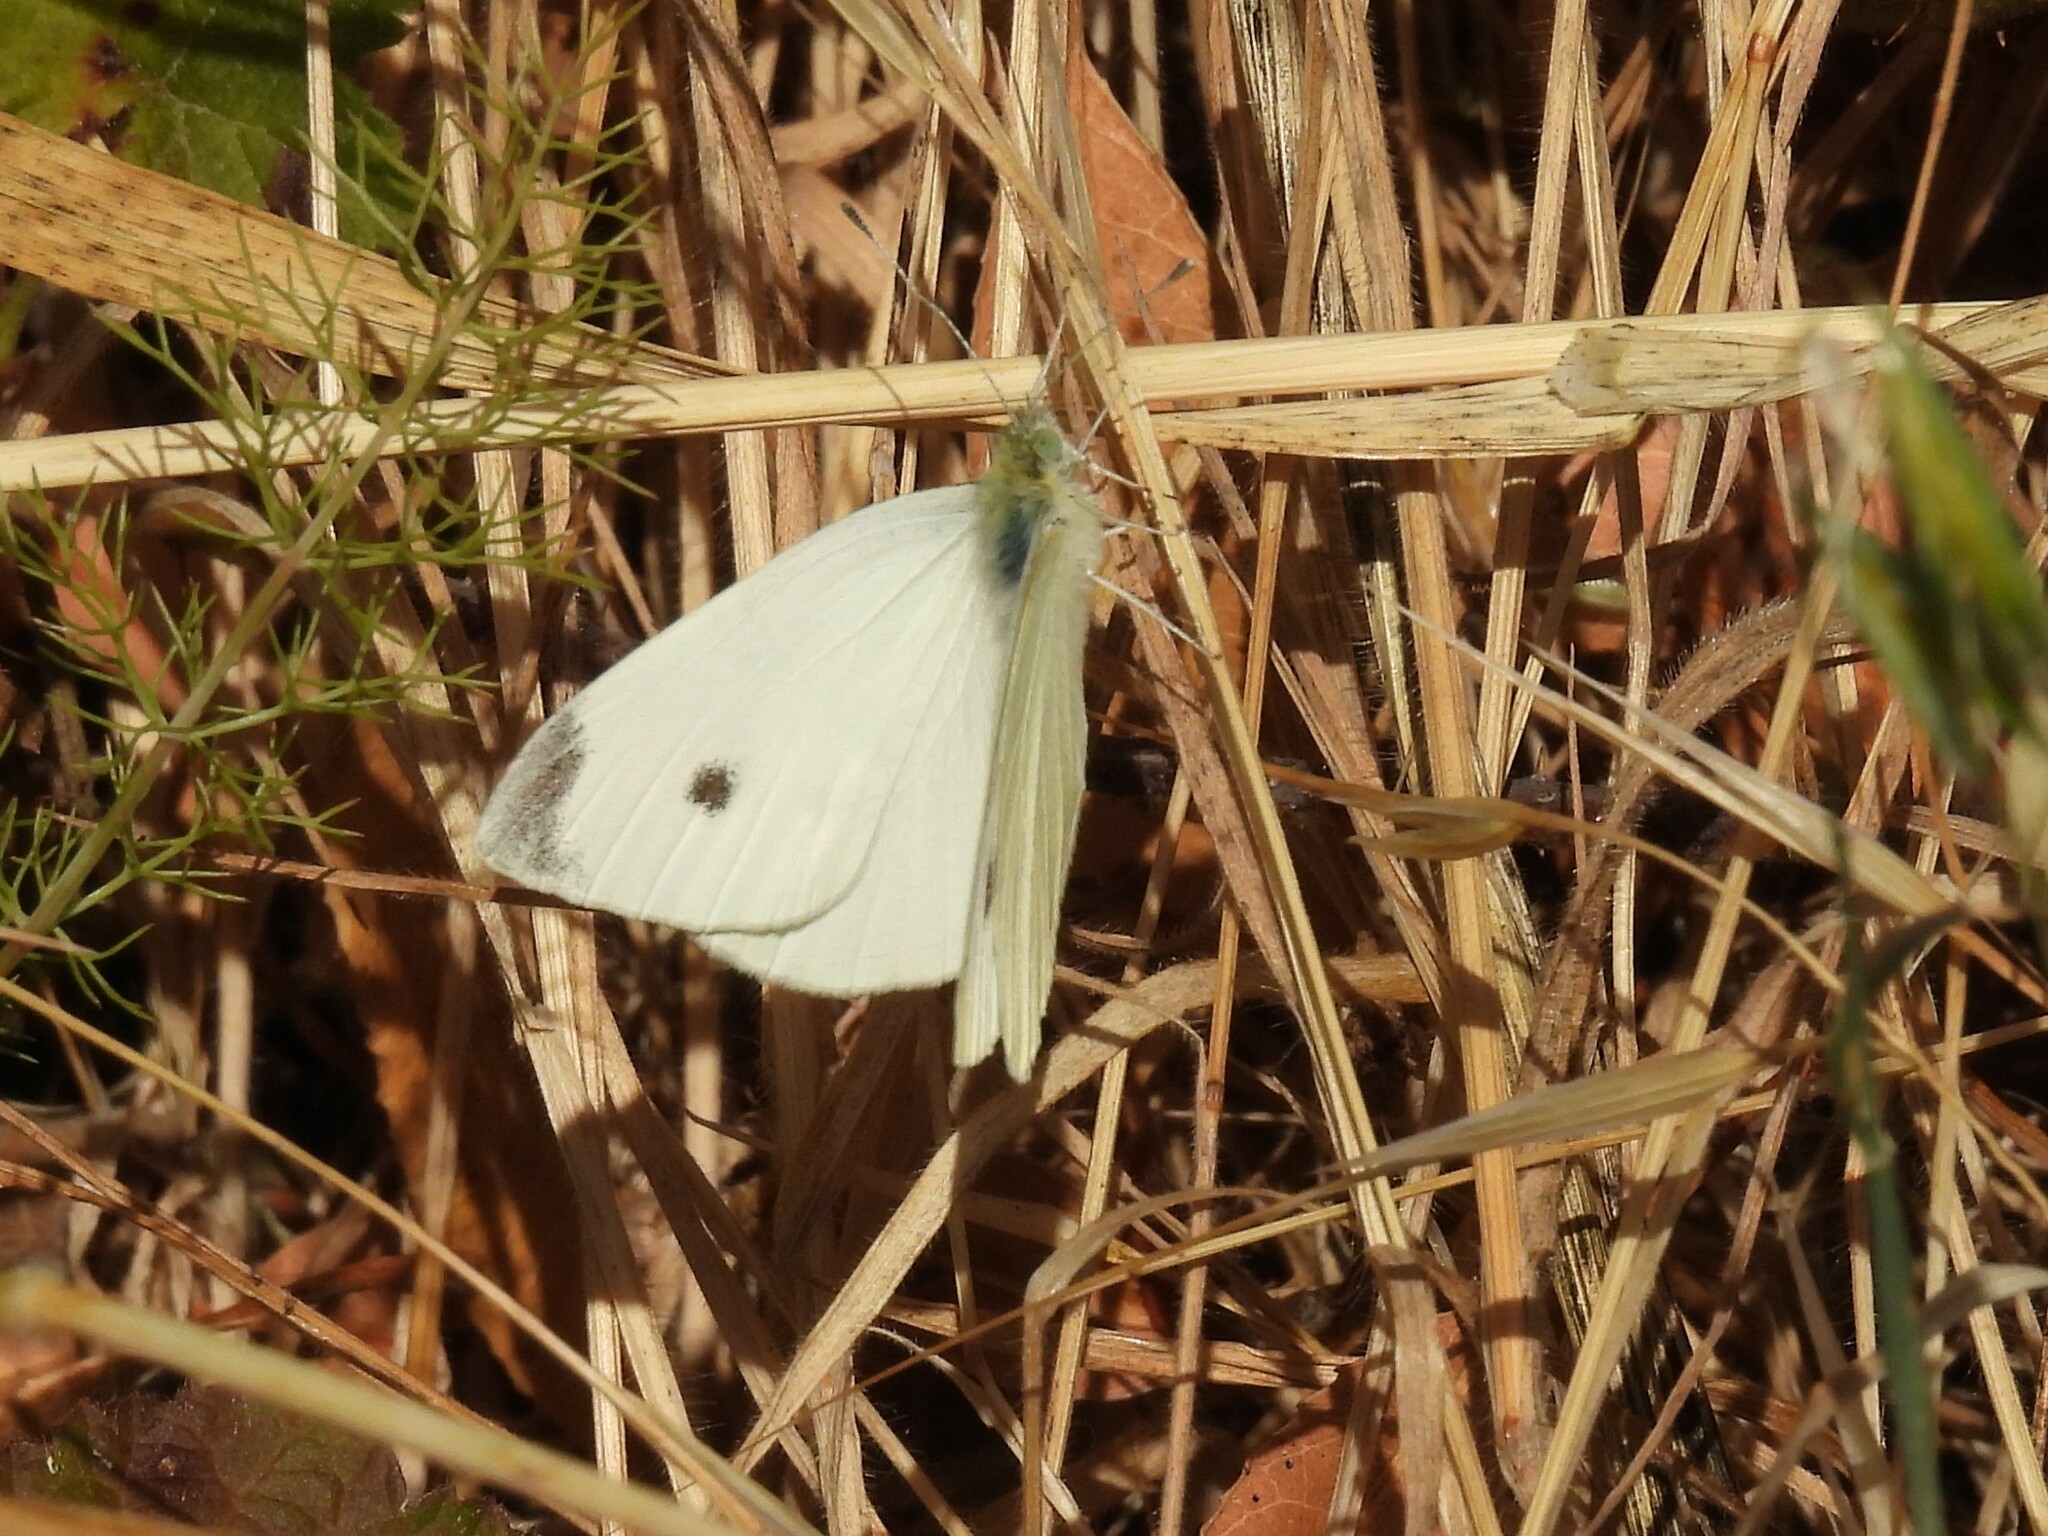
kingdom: Animalia
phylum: Arthropoda
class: Insecta
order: Lepidoptera
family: Pieridae
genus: Pieris
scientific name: Pieris rapae
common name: Small white
